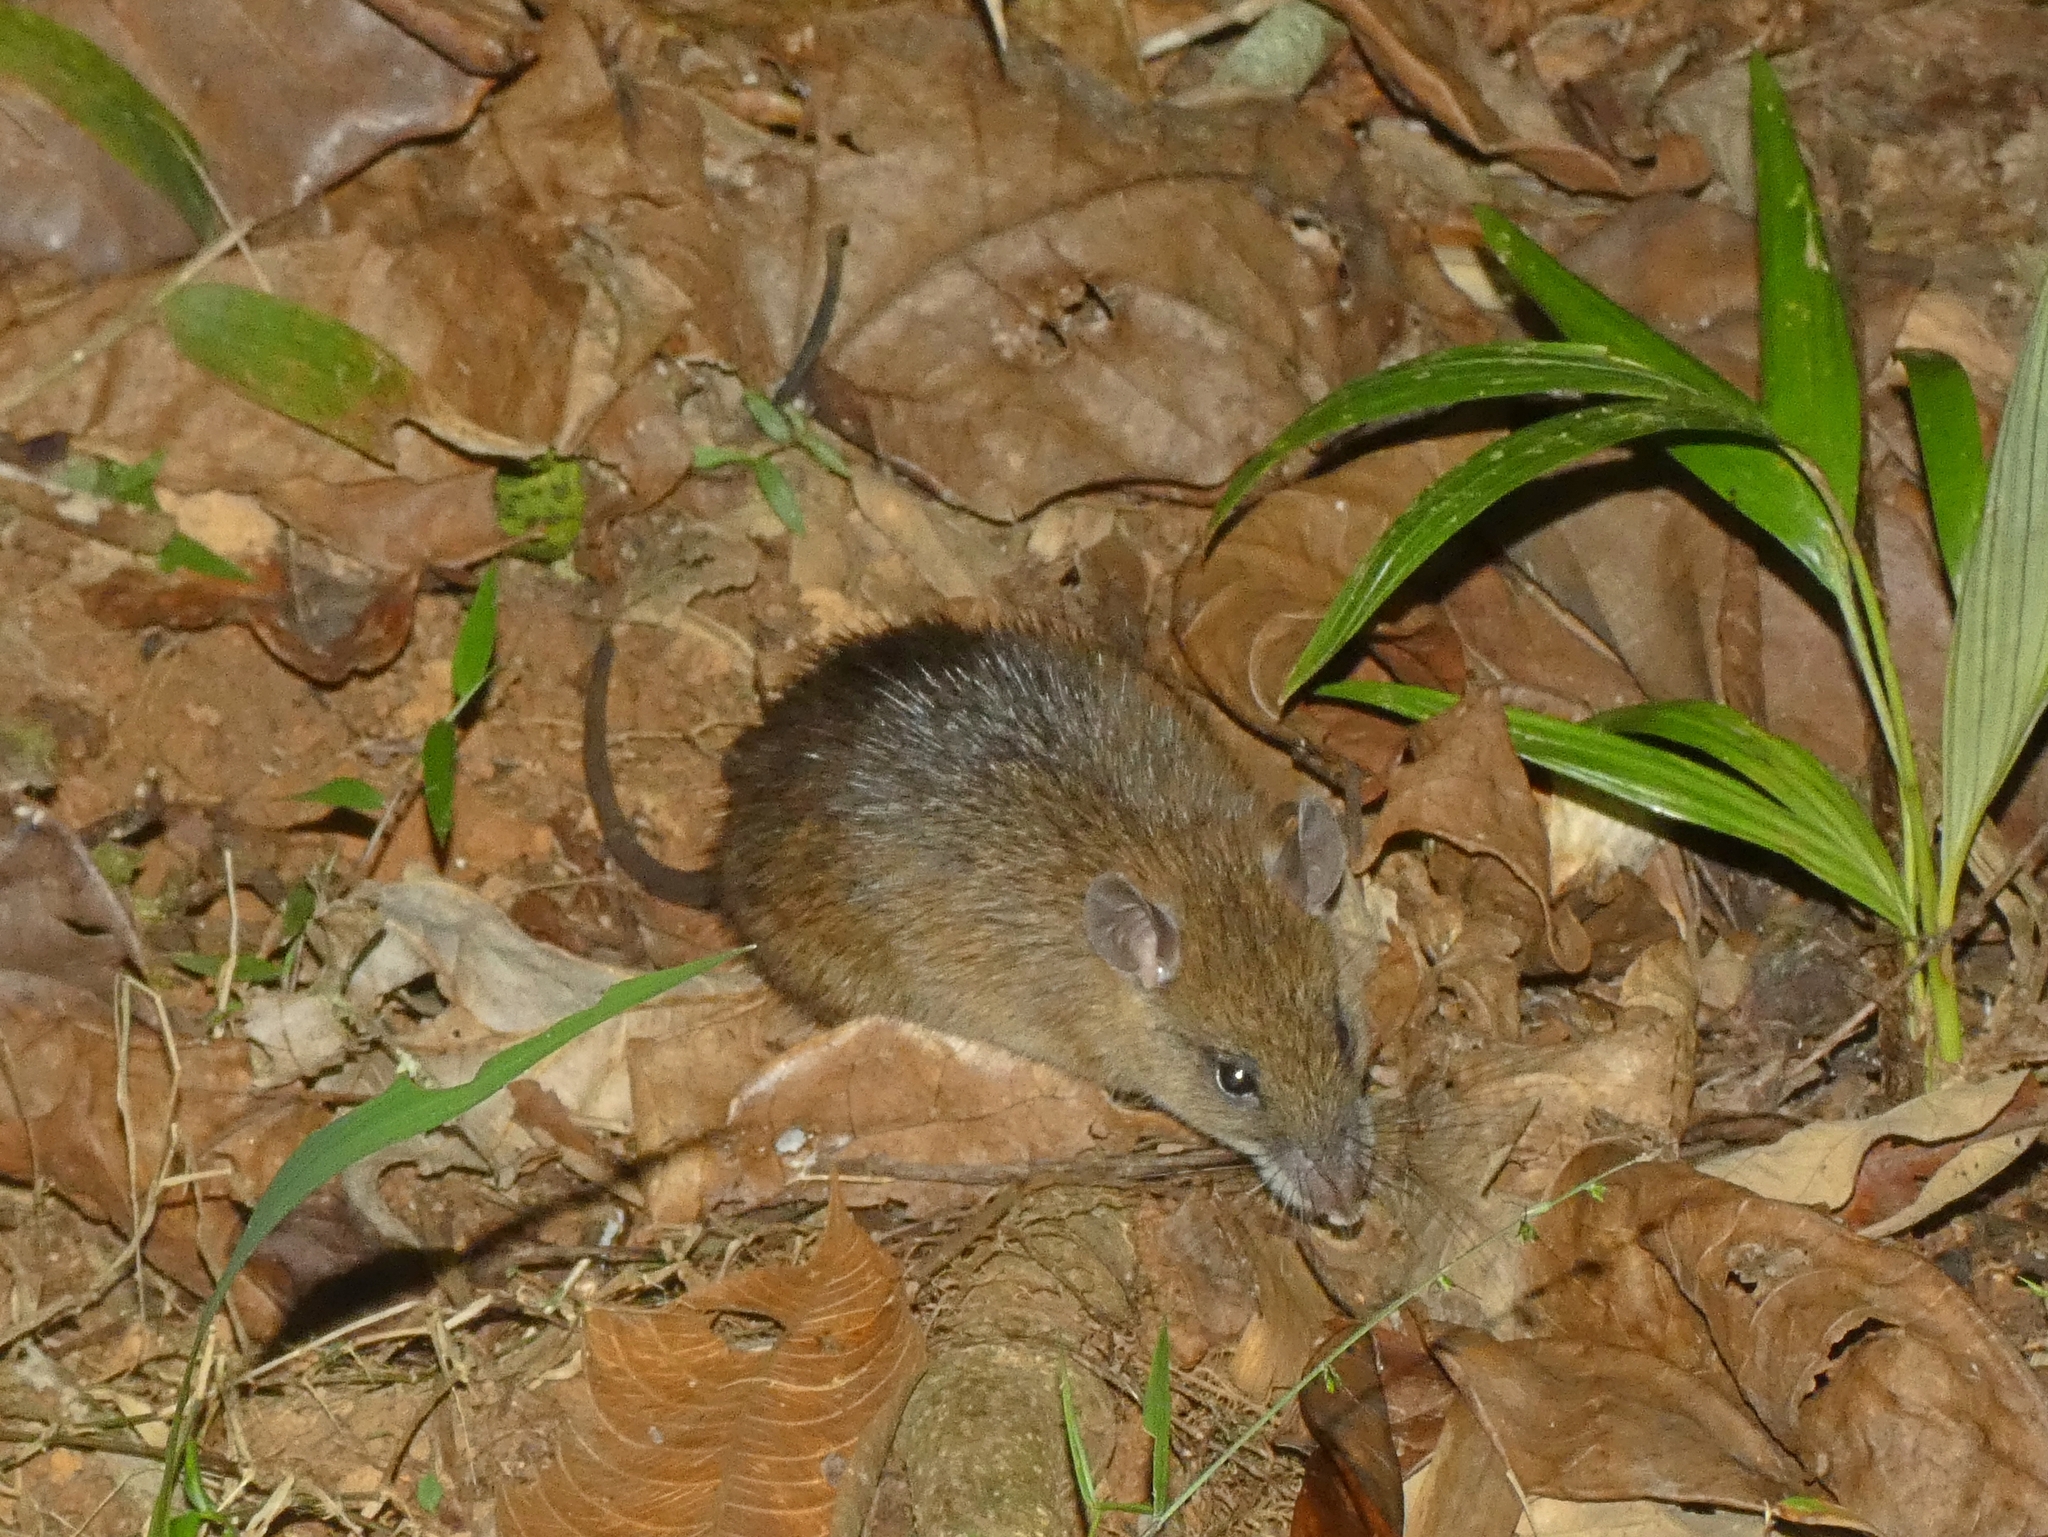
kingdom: Animalia
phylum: Chordata
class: Mammalia
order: Rodentia
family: Muridae
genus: Rattus
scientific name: Rattus sordidus
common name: Canefield rat
